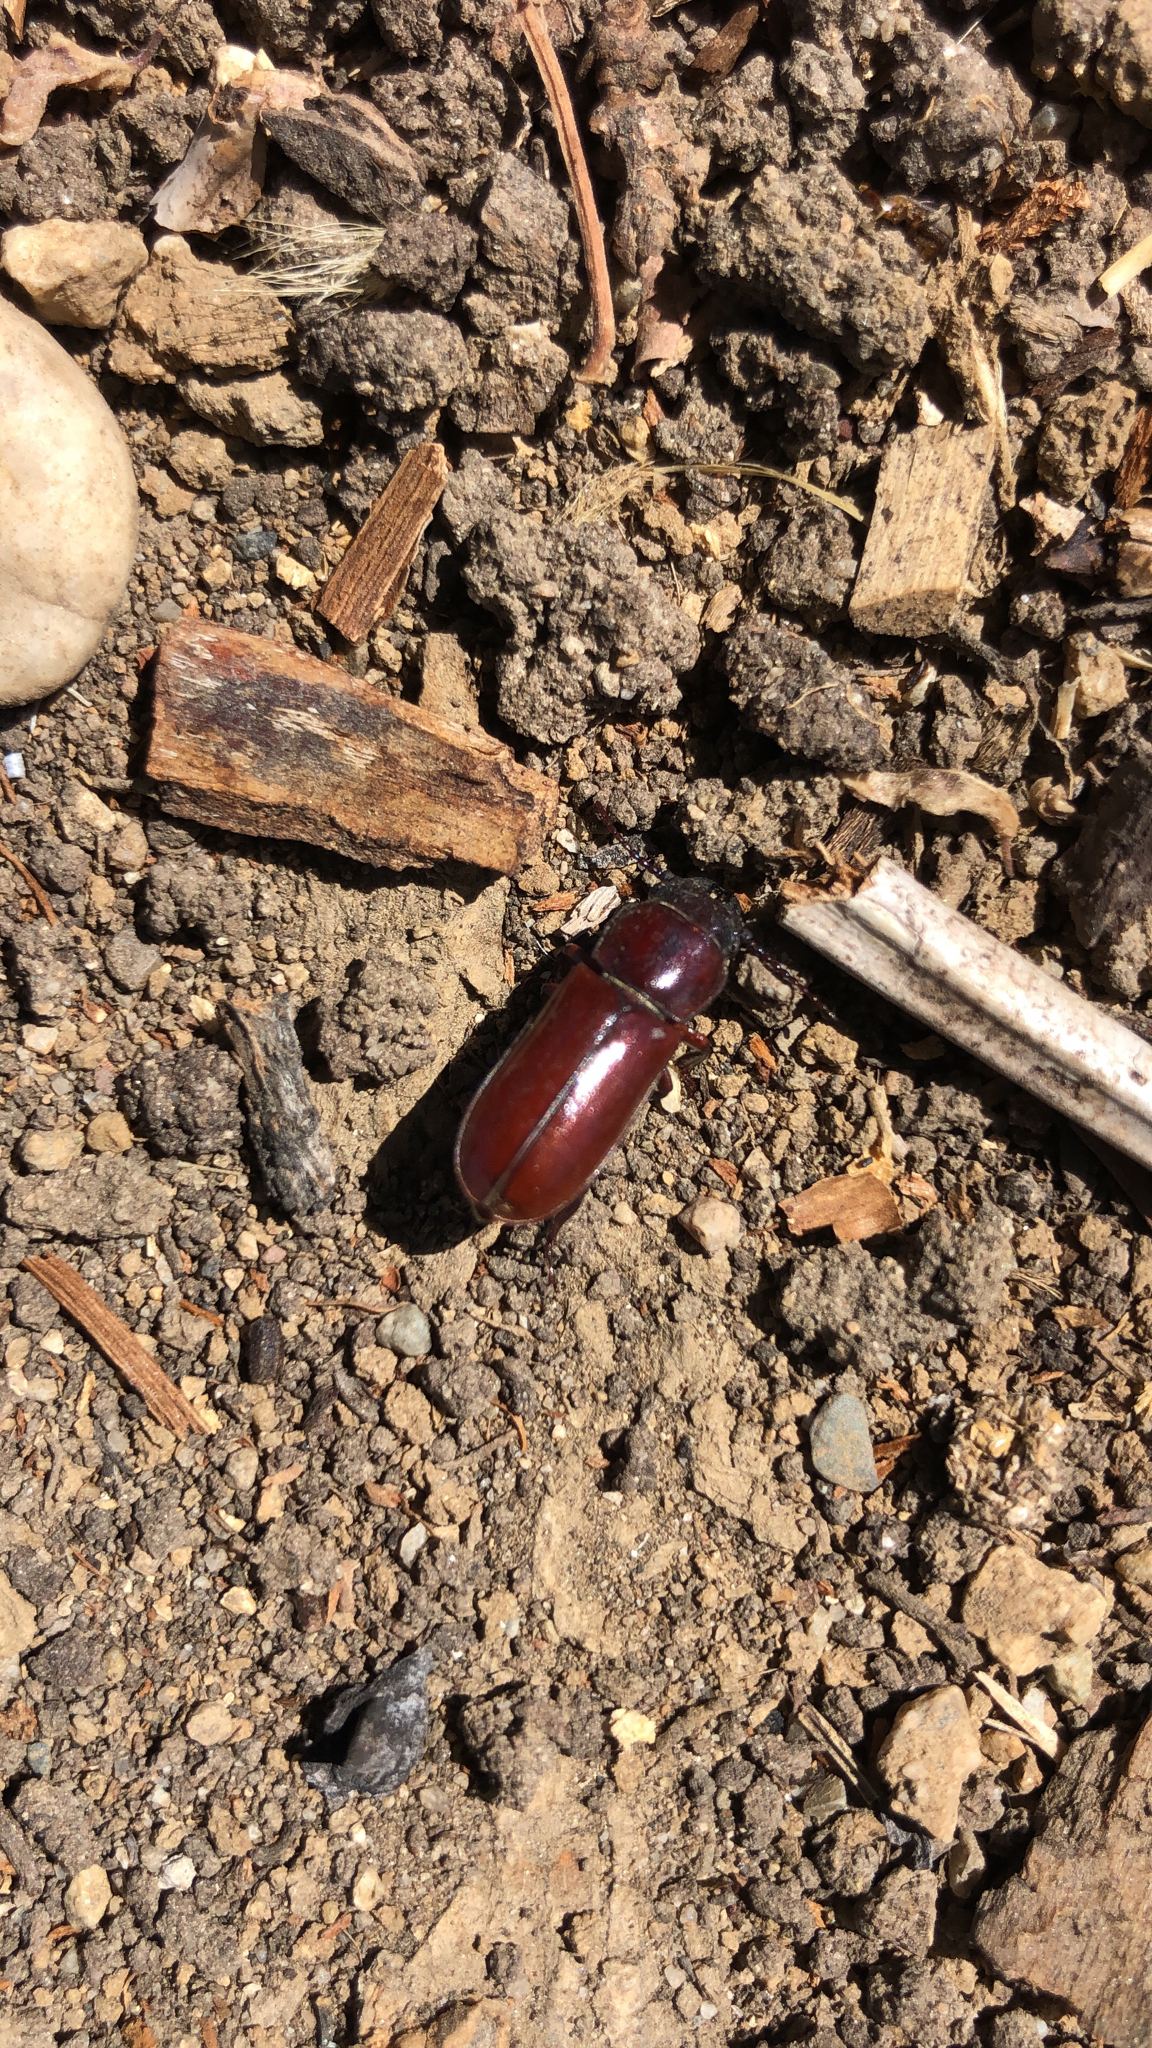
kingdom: Animalia
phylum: Arthropoda
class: Insecta
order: Coleoptera
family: Cerambycidae
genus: Neandra
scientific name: Neandra brunnea
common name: Pole borer
